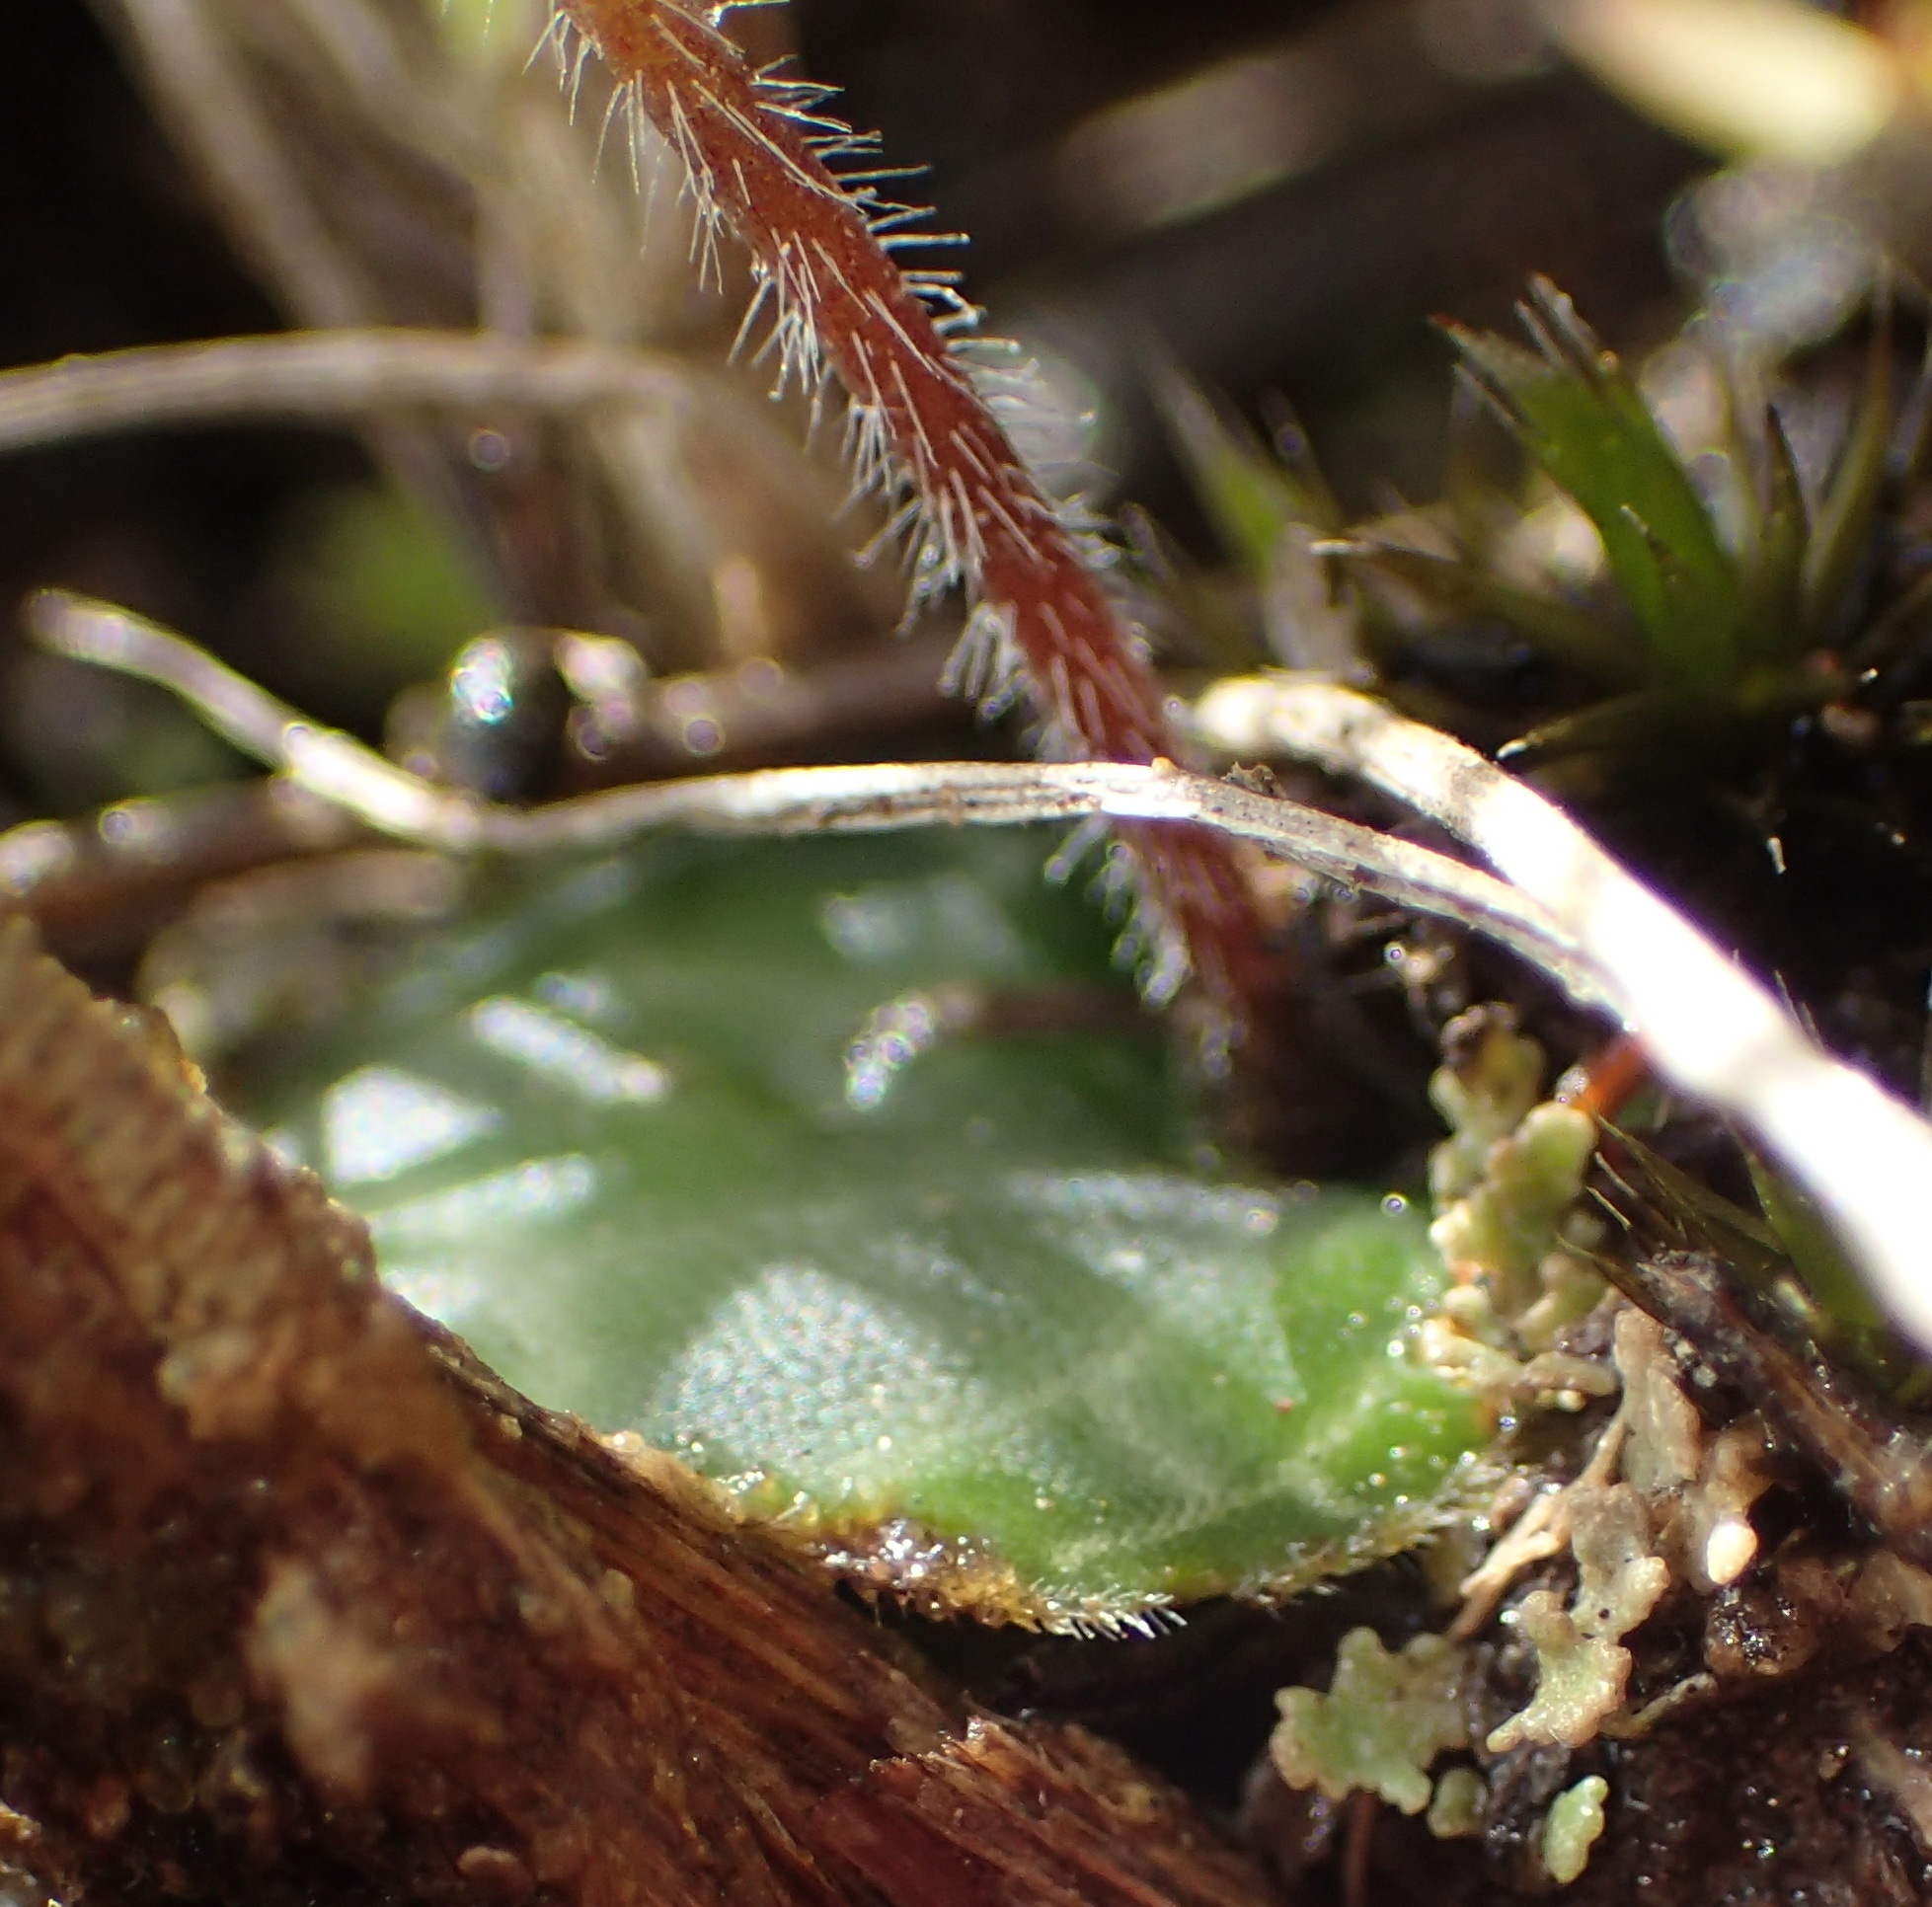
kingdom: Plantae
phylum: Tracheophyta
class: Liliopsida
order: Asparagales
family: Orchidaceae
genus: Holothrix
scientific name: Holothrix etheliae
